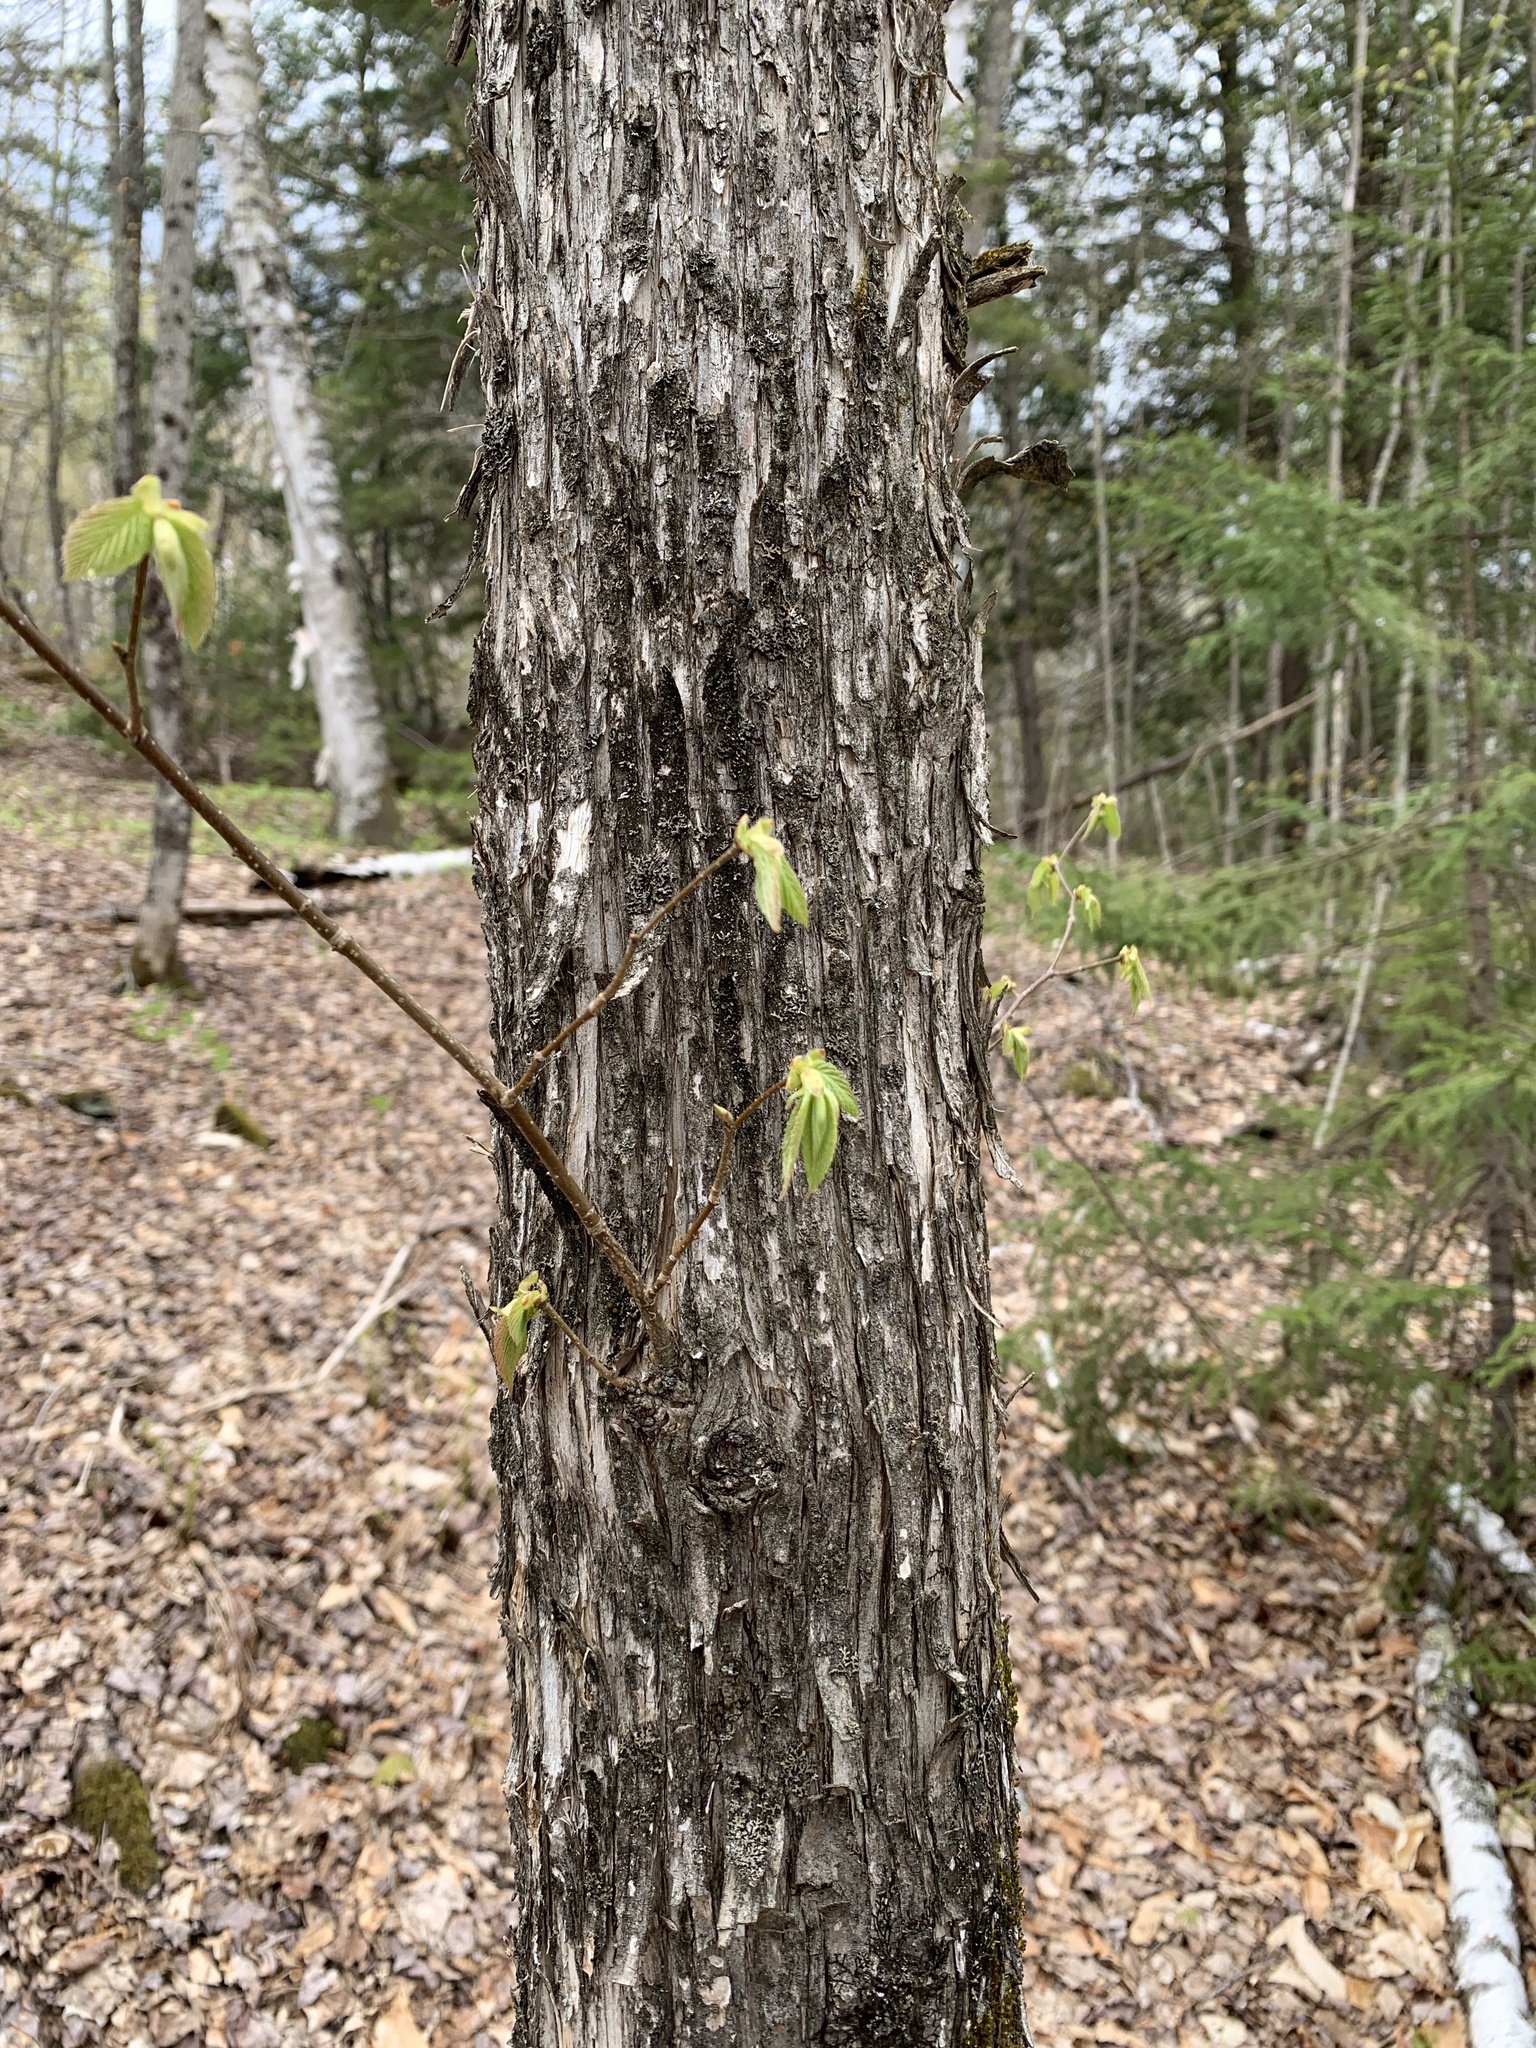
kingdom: Plantae
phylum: Tracheophyta
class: Magnoliopsida
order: Fagales
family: Betulaceae
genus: Ostrya
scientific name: Ostrya virginiana
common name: Ironwood
